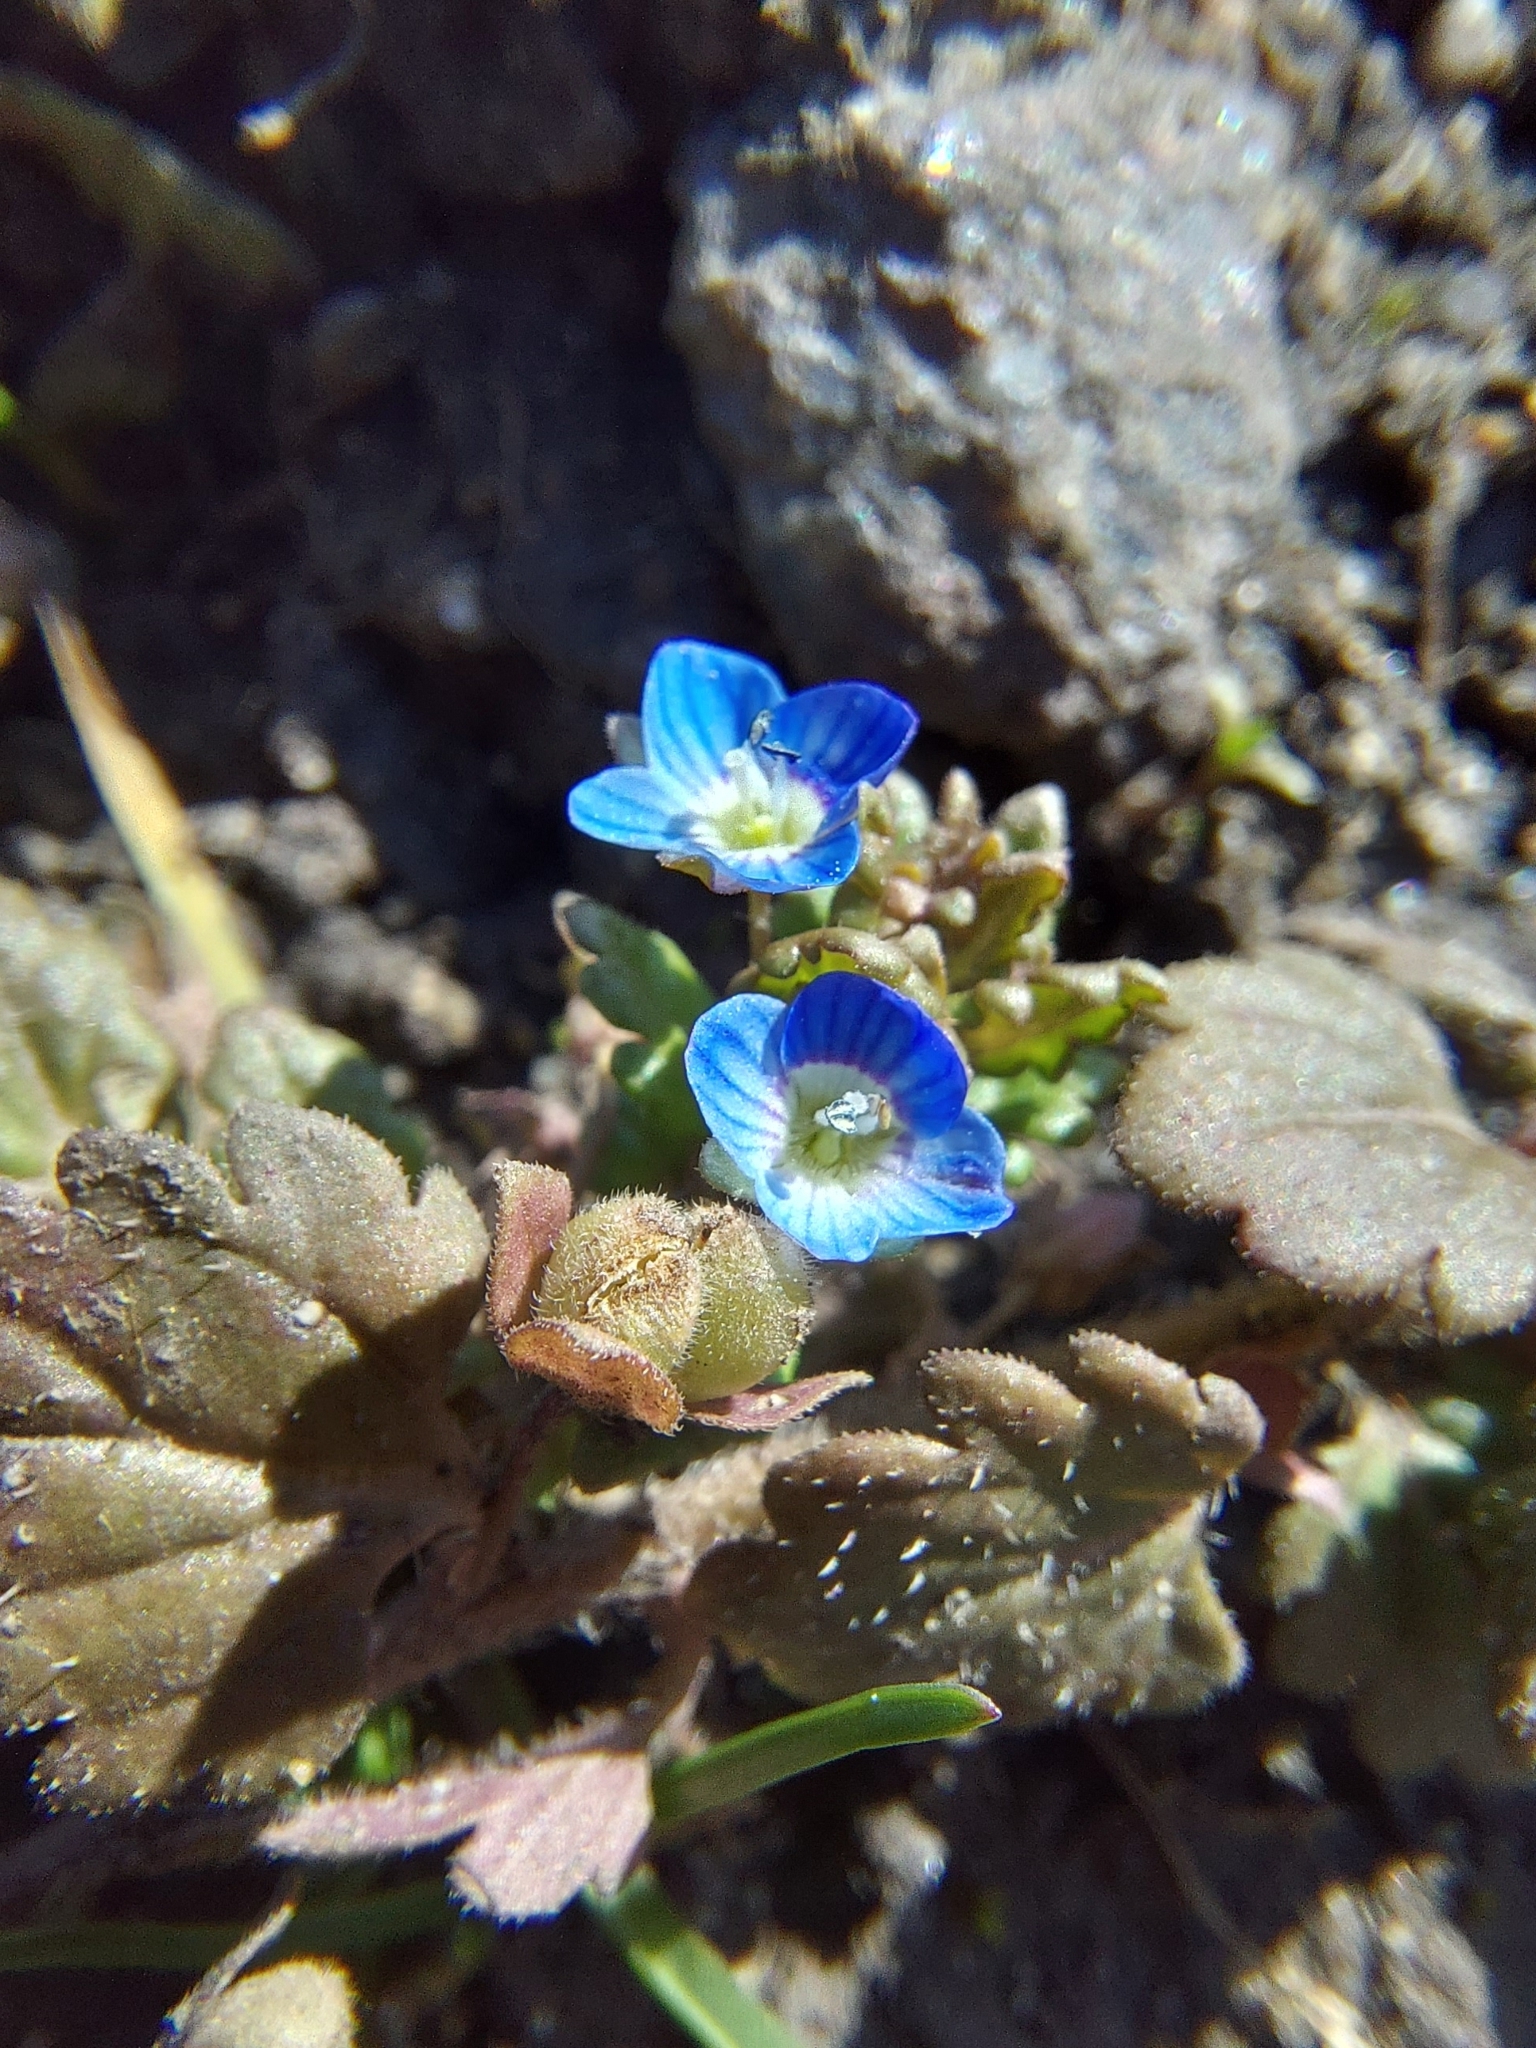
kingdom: Plantae
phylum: Tracheophyta
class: Magnoliopsida
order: Lamiales
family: Plantaginaceae
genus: Veronica
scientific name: Veronica polita
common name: Grey field-speedwell
